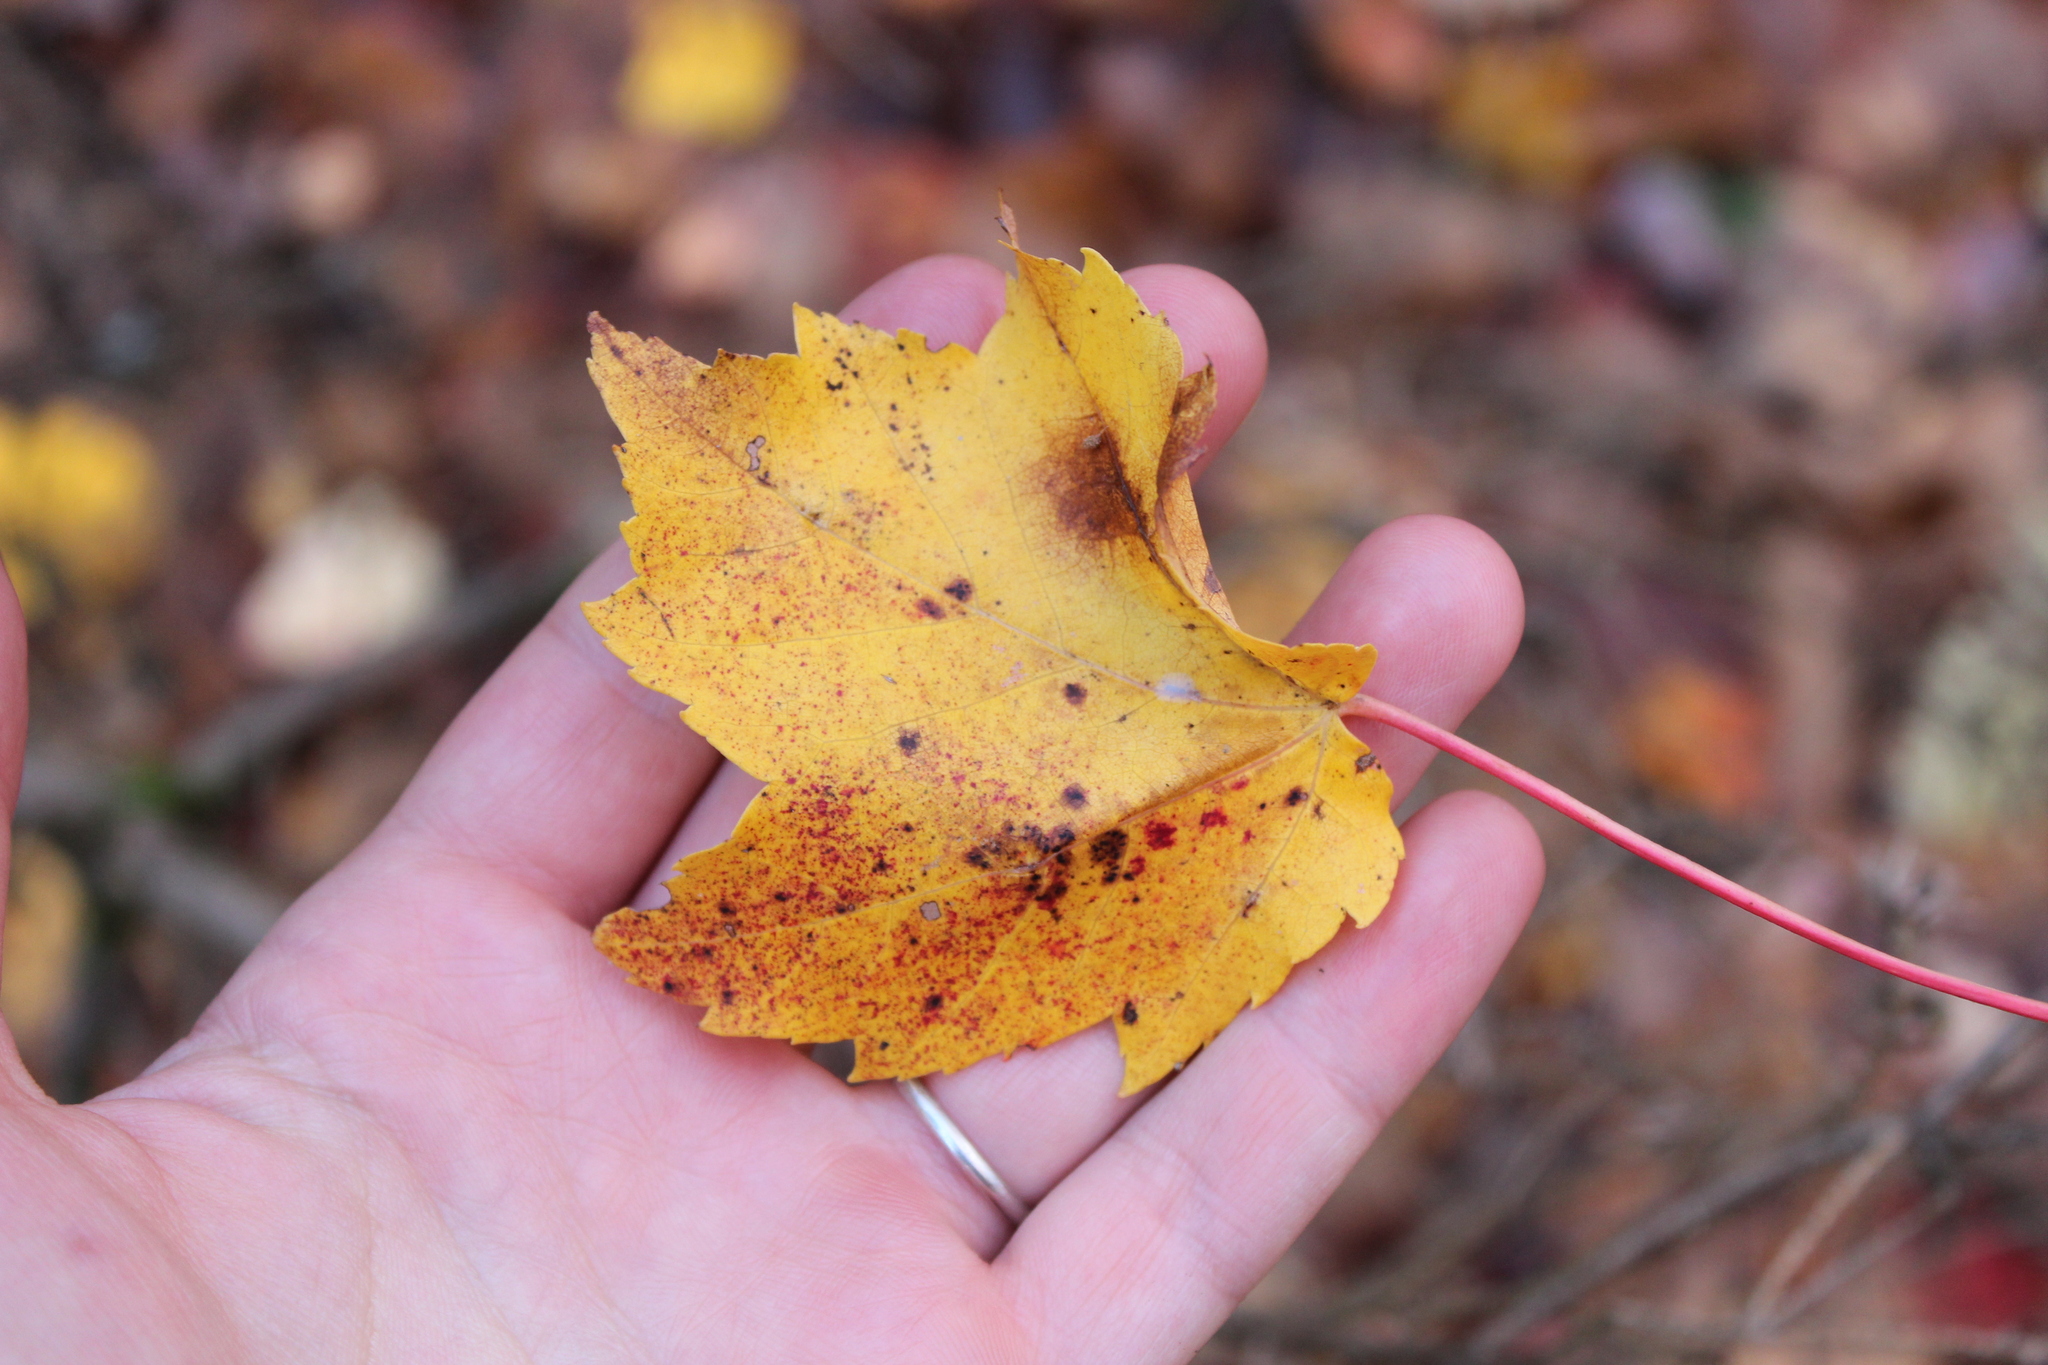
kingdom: Plantae
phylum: Tracheophyta
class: Magnoliopsida
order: Sapindales
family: Sapindaceae
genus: Acer
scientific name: Acer rubrum
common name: Red maple
